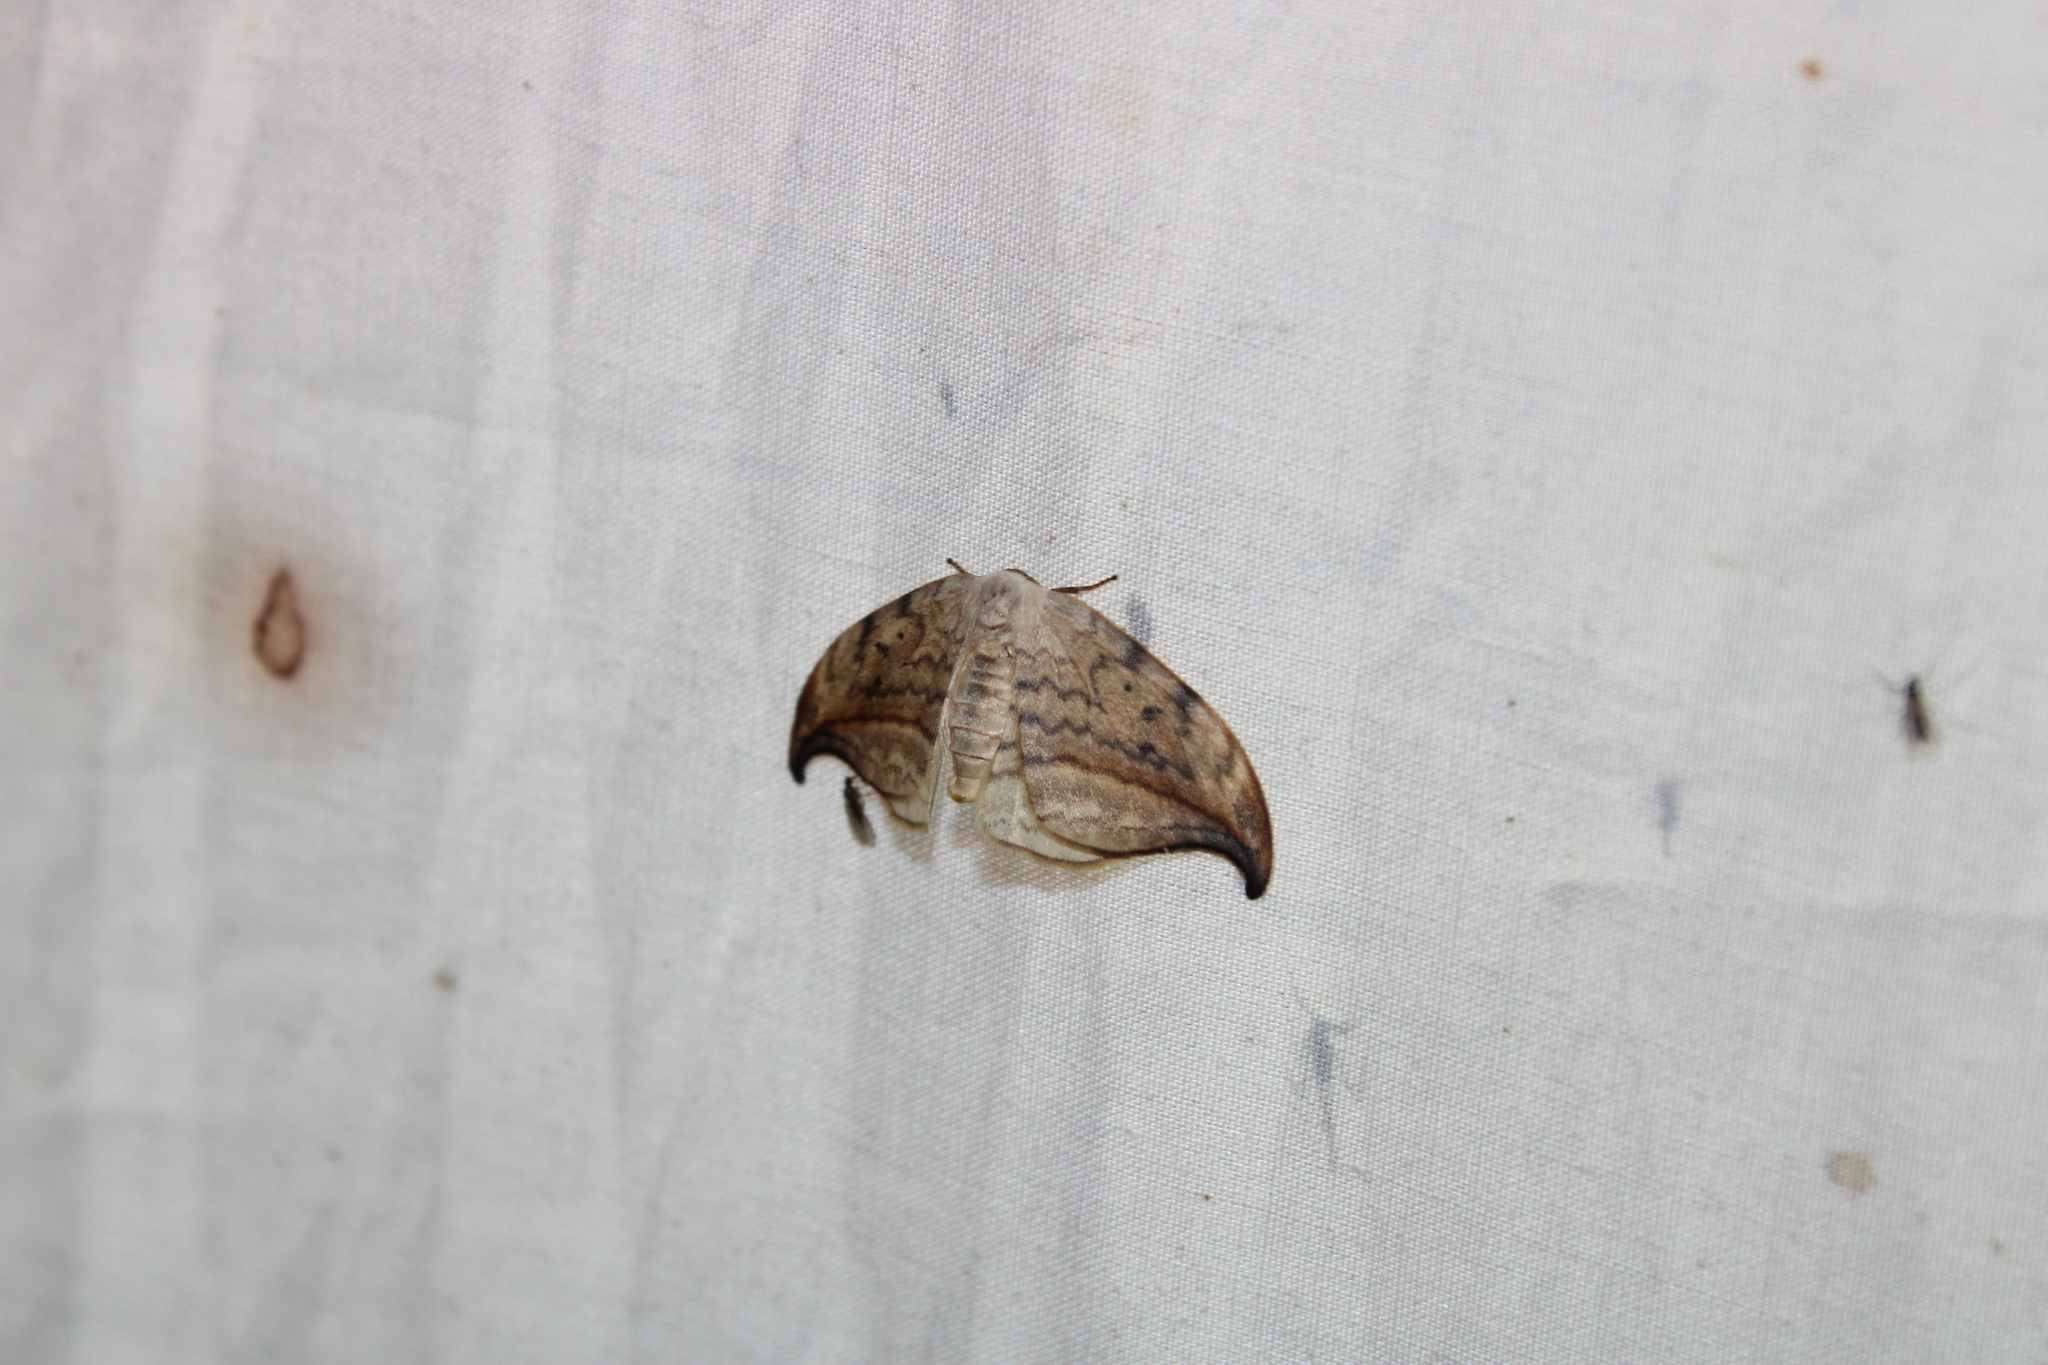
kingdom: Animalia
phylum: Arthropoda
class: Insecta
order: Lepidoptera
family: Drepanidae
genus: Drepana
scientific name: Drepana arcuata
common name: Arched hooktip moth
